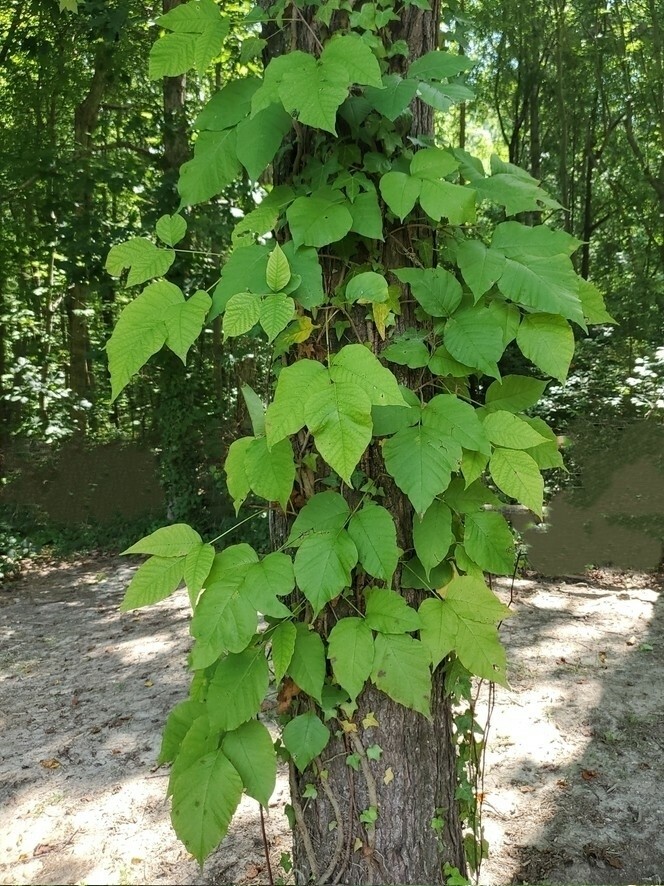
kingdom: Plantae
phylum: Tracheophyta
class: Magnoliopsida
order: Sapindales
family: Anacardiaceae
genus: Toxicodendron
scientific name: Toxicodendron radicans
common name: Poison ivy
